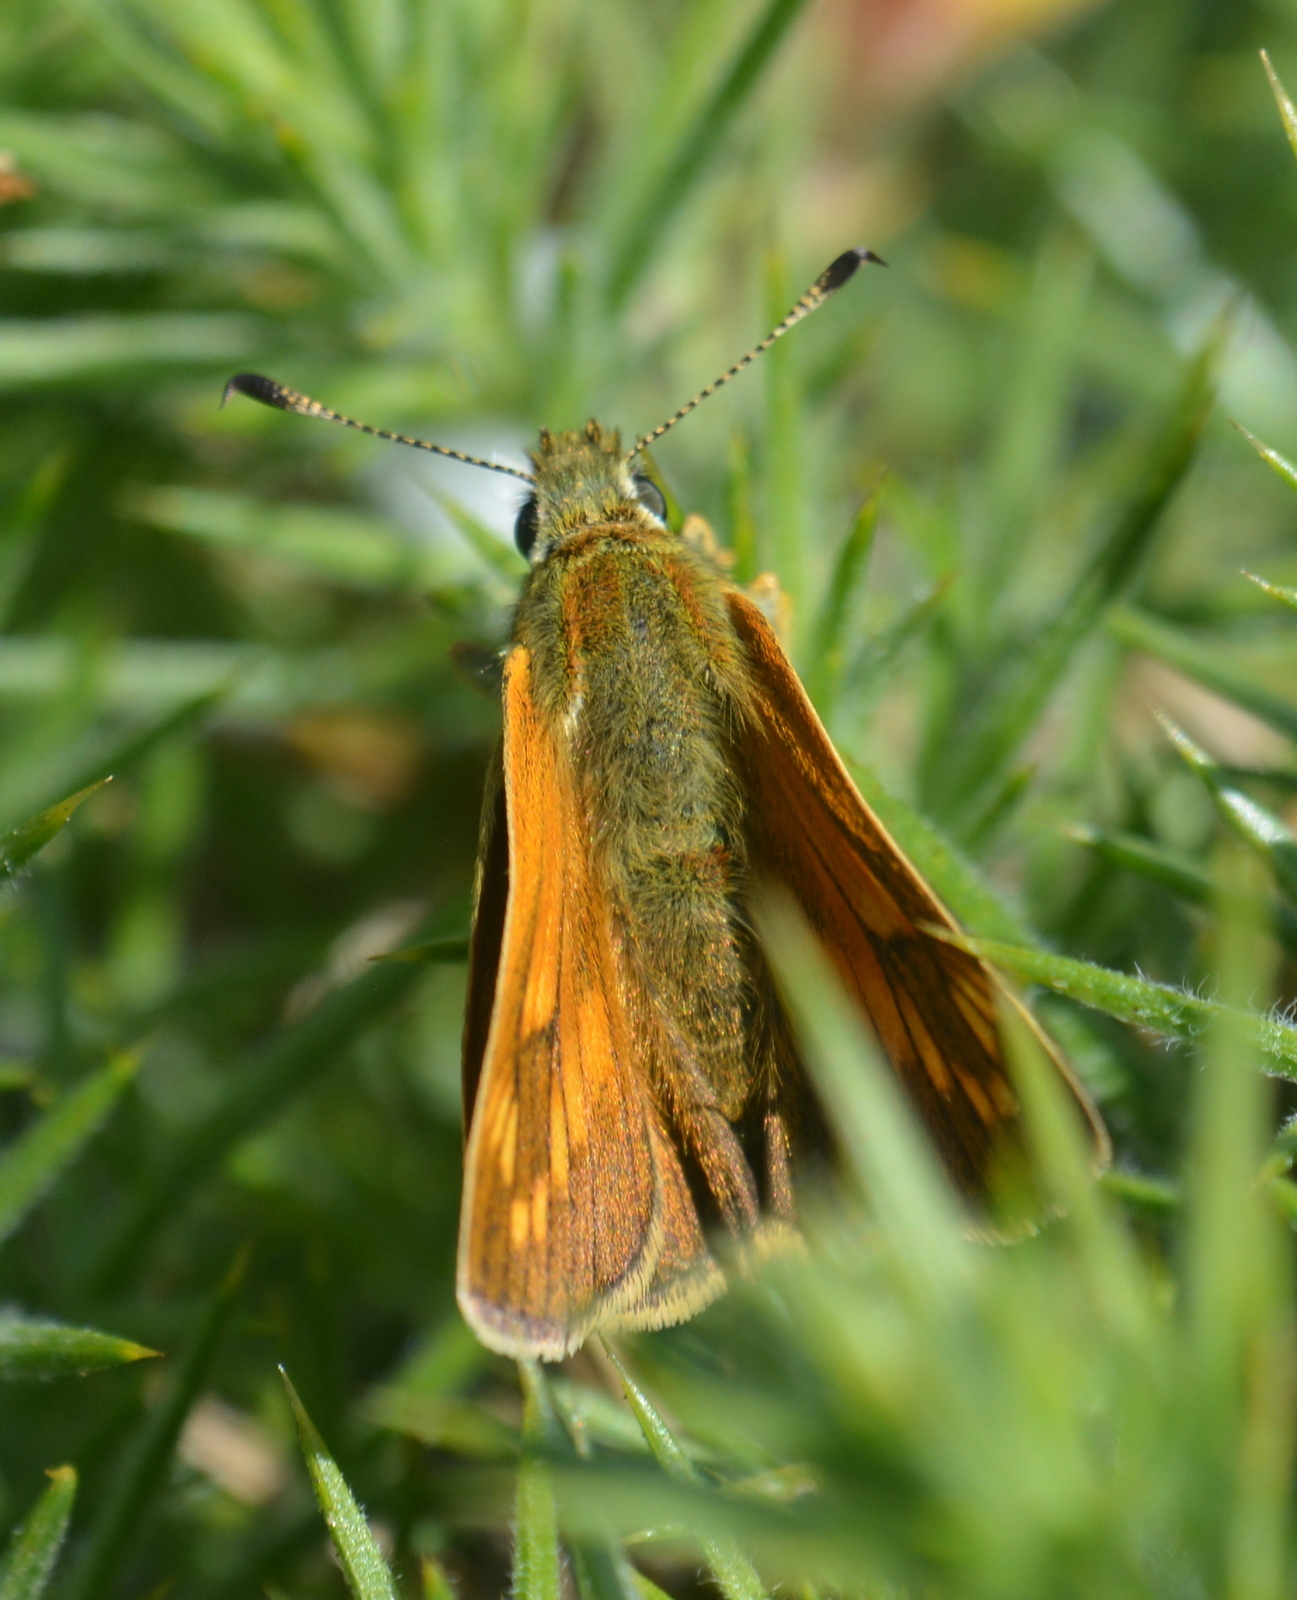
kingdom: Animalia
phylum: Arthropoda
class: Insecta
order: Lepidoptera
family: Hesperiidae
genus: Ochlodes
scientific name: Ochlodes venata
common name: Large skipper
